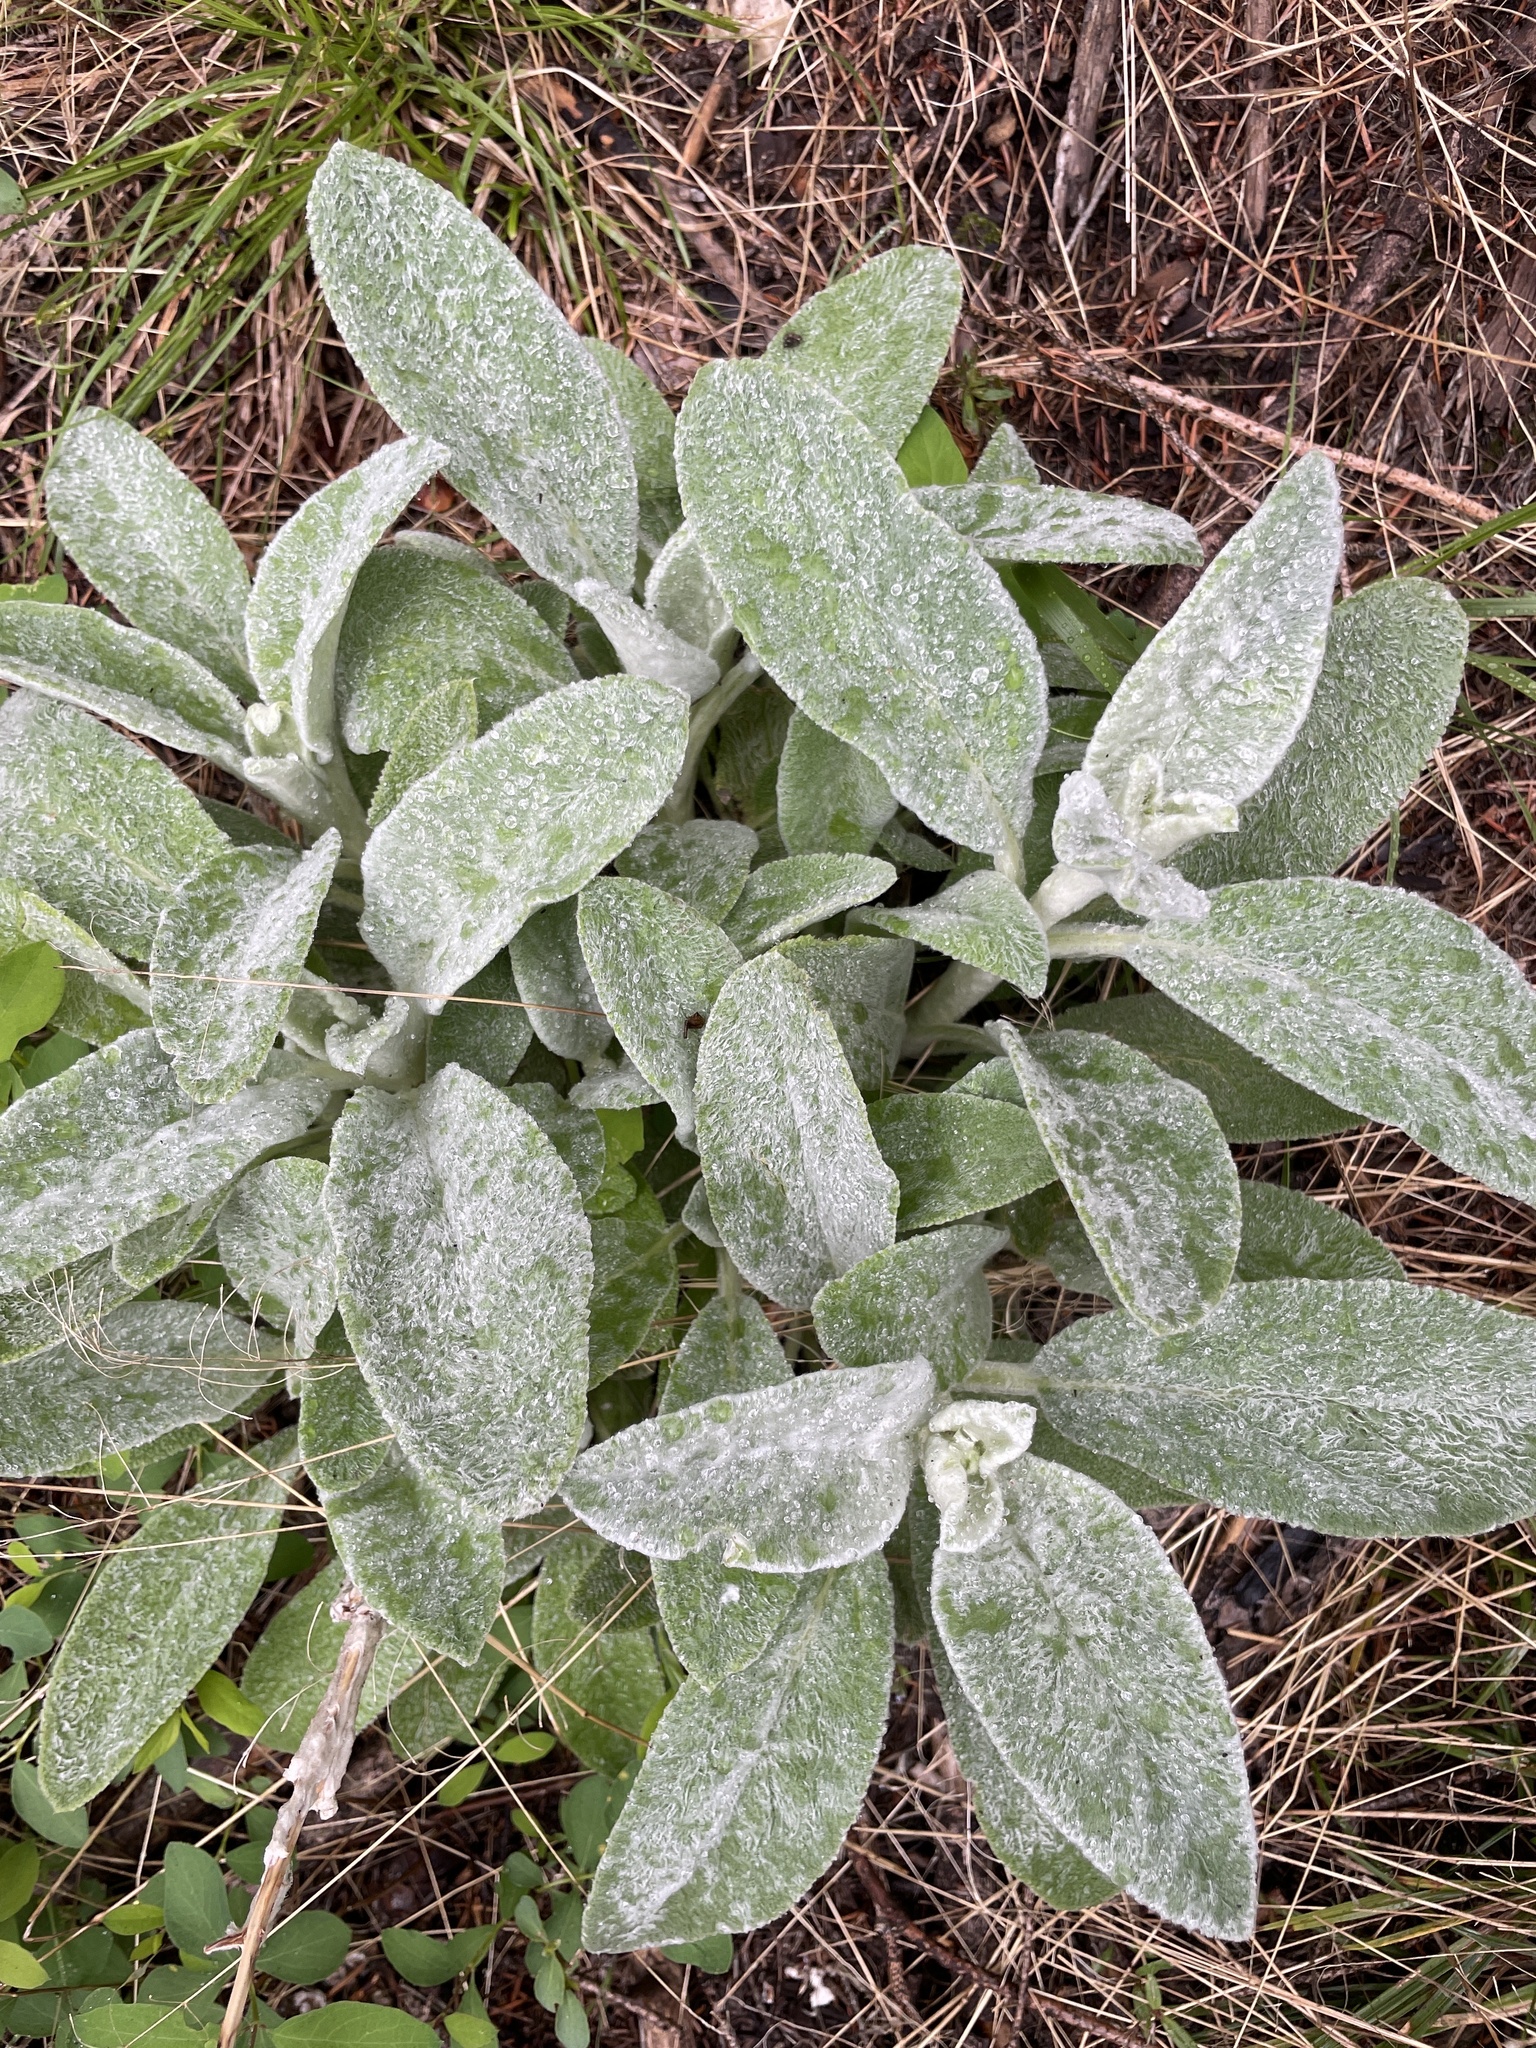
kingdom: Plantae
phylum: Tracheophyta
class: Magnoliopsida
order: Lamiales
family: Lamiaceae
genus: Stachys
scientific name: Stachys byzantina
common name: Lamb's-ear
